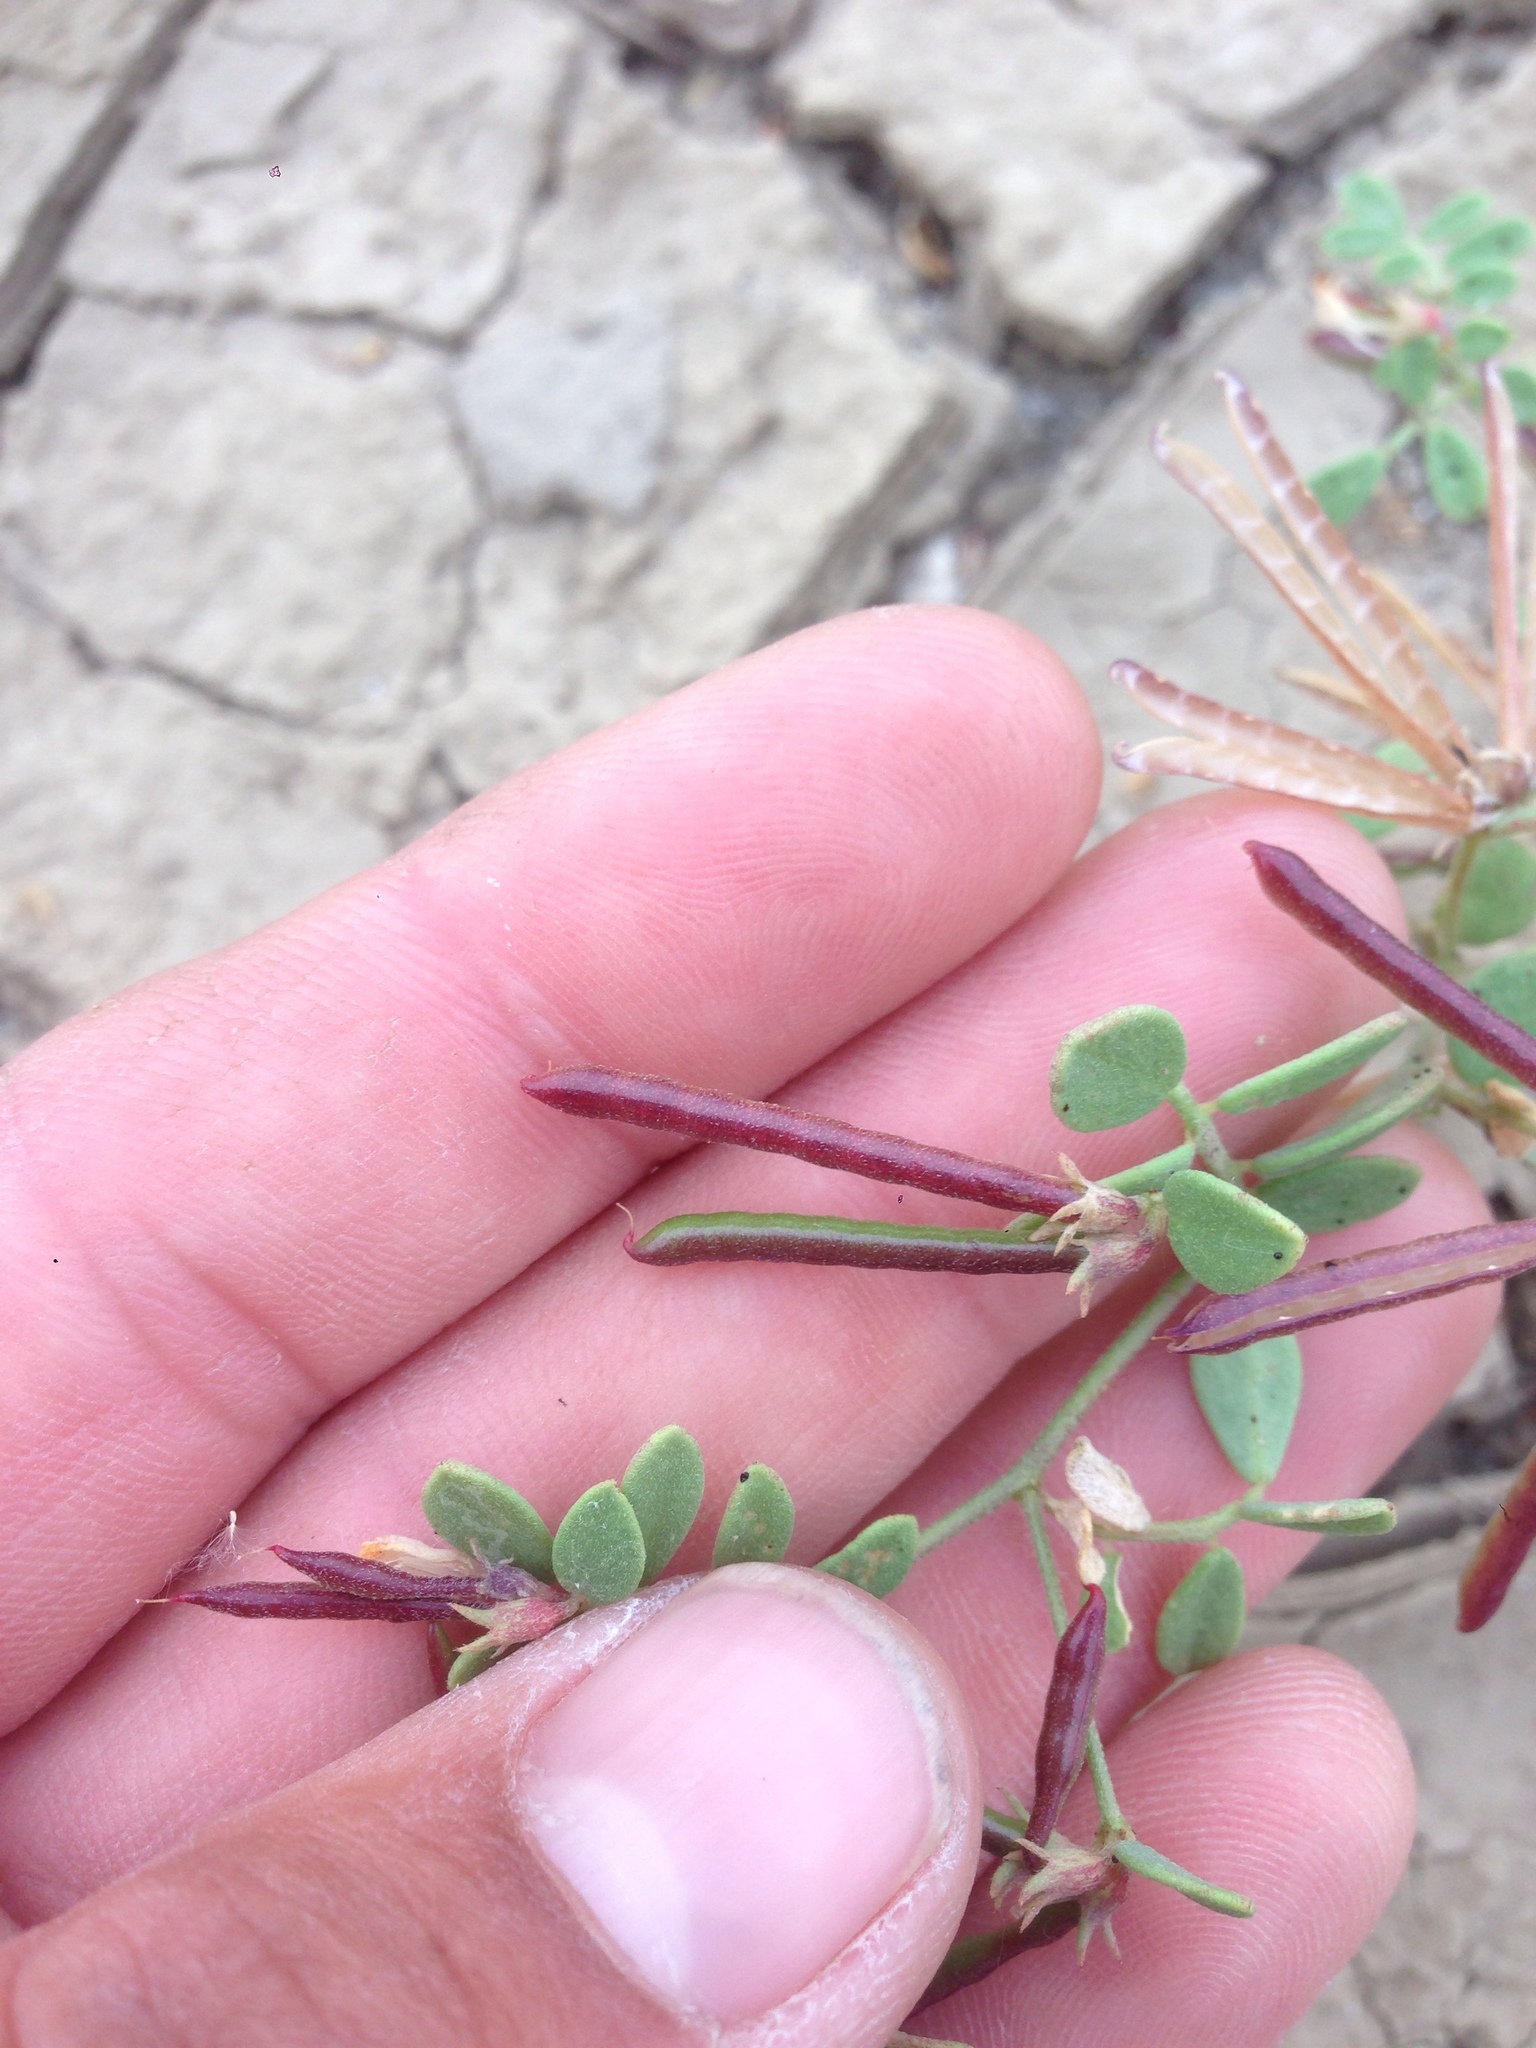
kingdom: Plantae
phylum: Tracheophyta
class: Magnoliopsida
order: Fabales
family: Fabaceae
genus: Acmispon
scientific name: Acmispon maritimus
